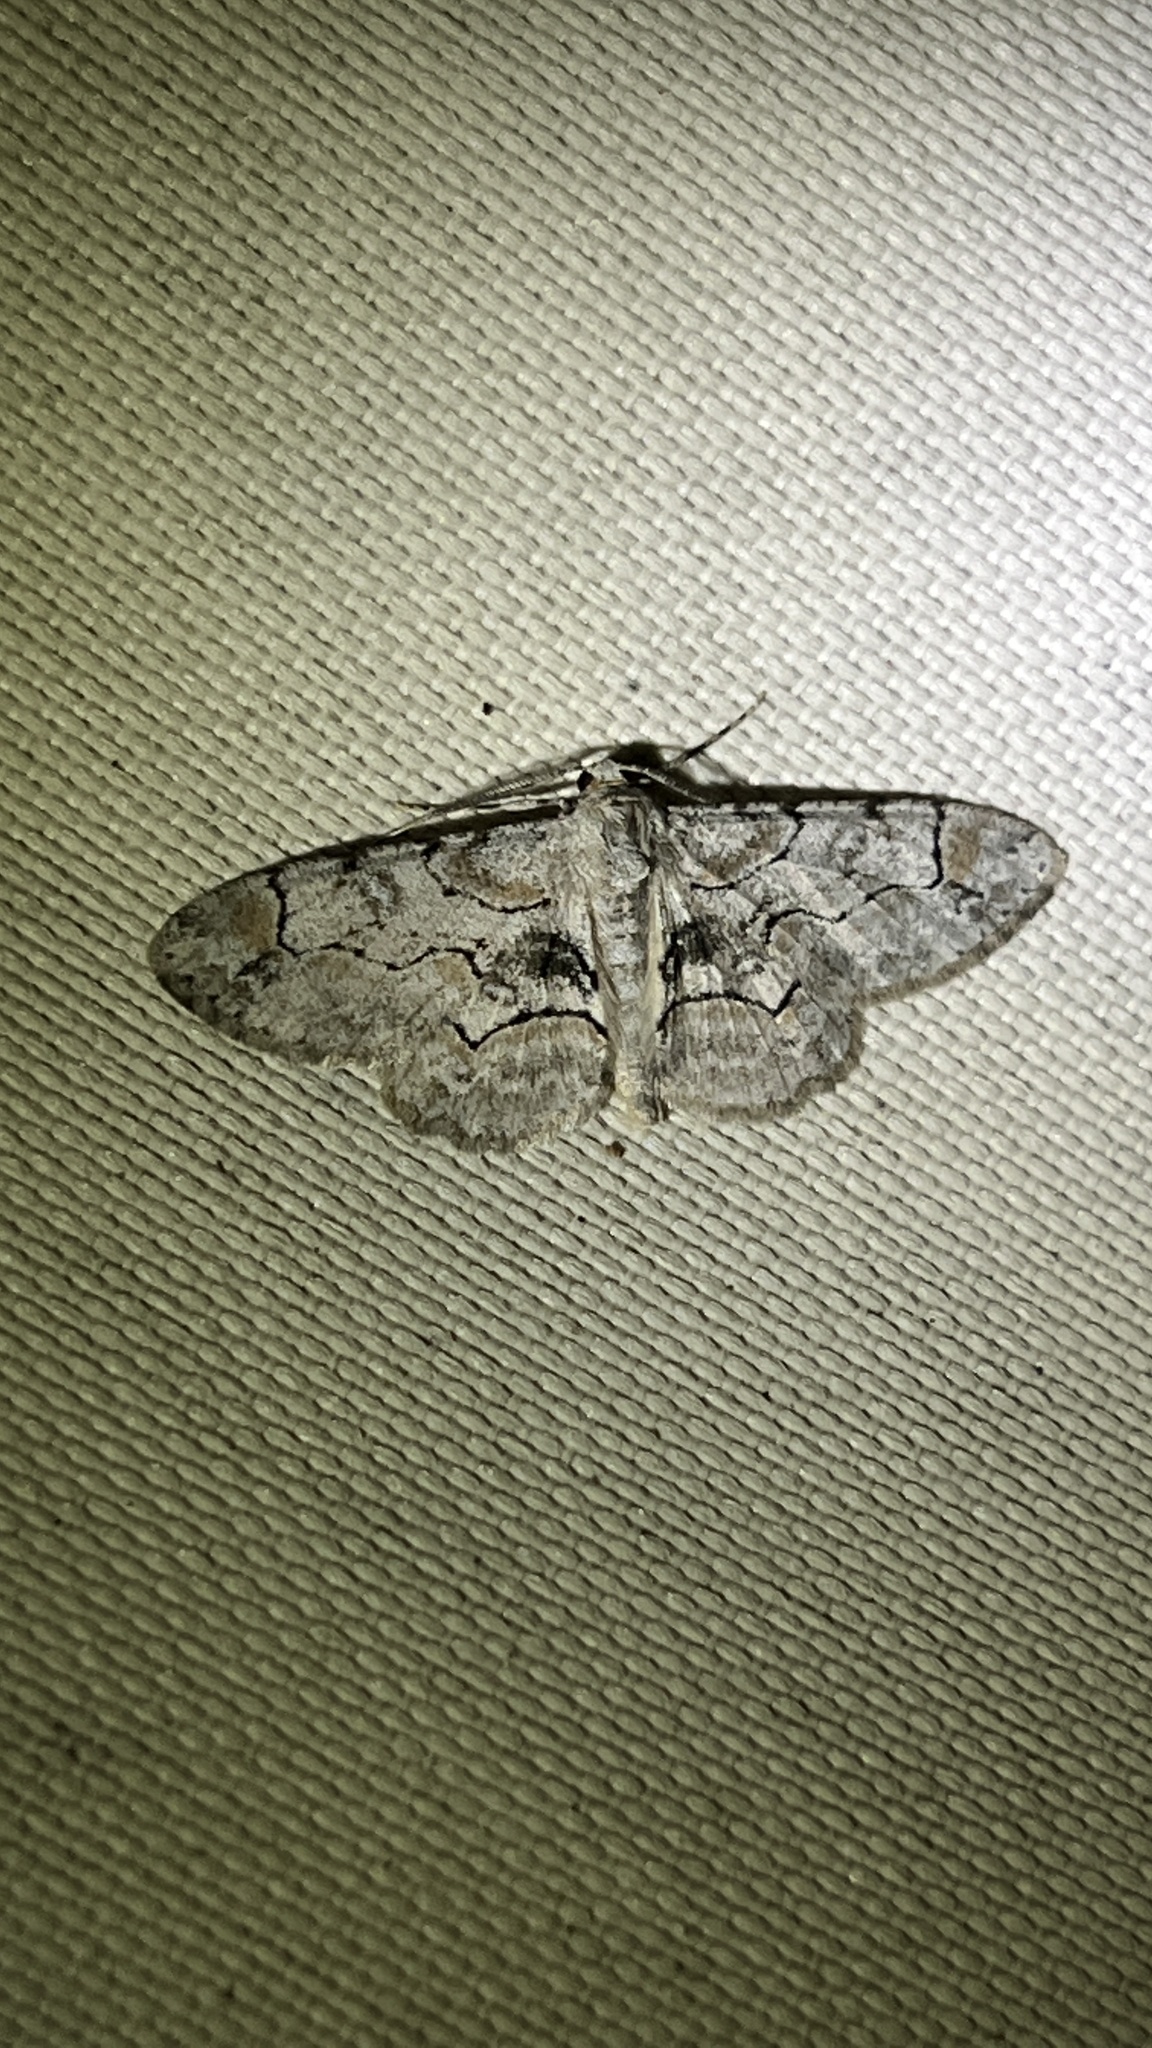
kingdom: Animalia
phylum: Arthropoda
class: Insecta
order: Lepidoptera
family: Geometridae
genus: Iridopsis
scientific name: Iridopsis larvaria
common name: Bent-line gray
